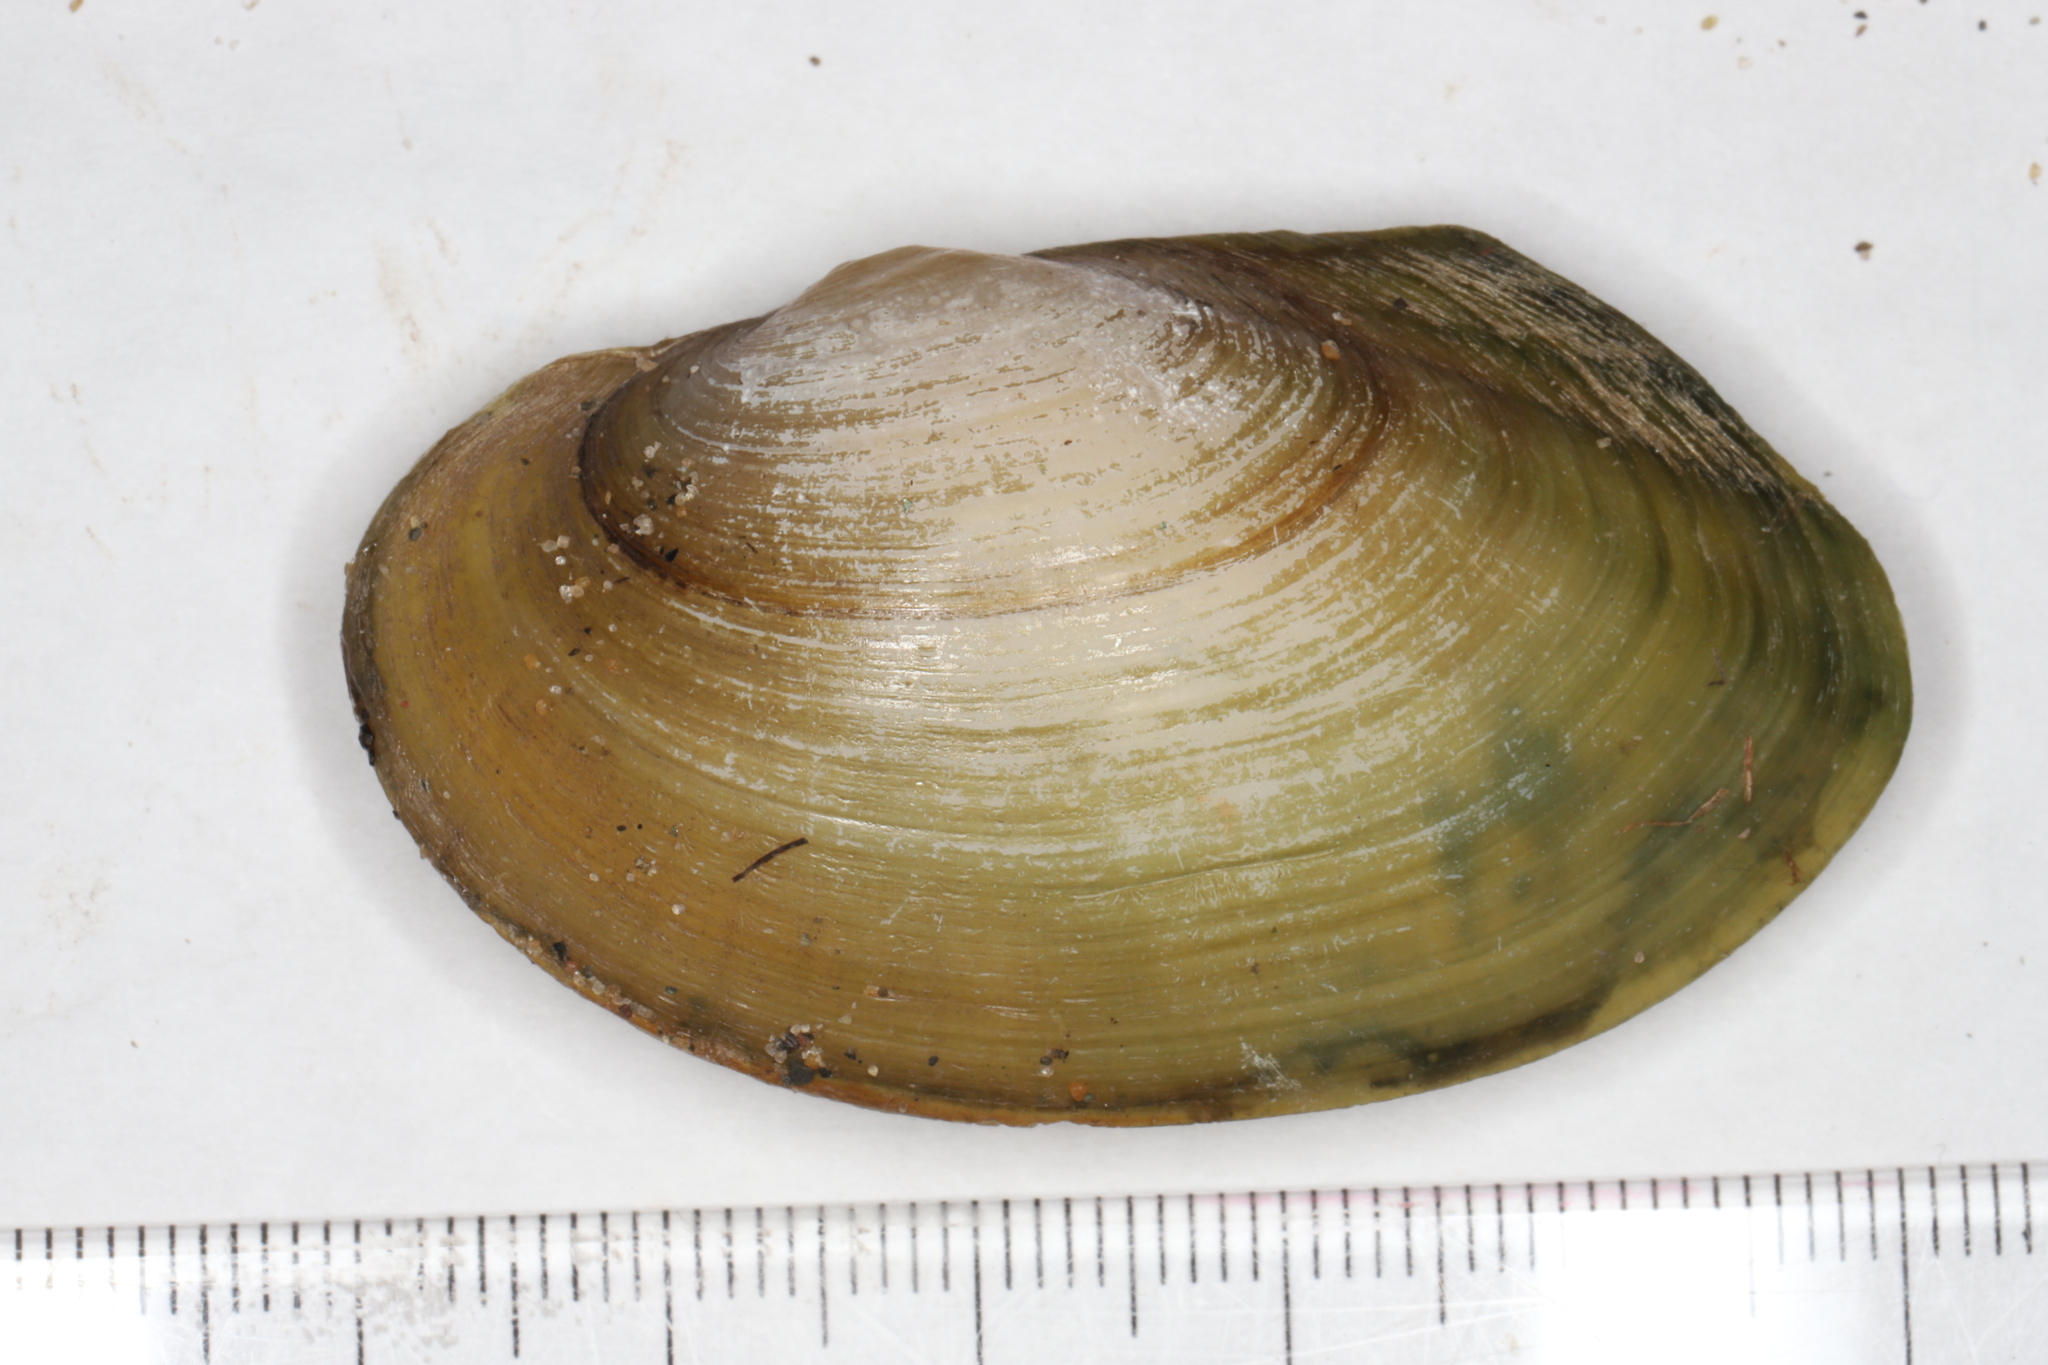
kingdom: Animalia
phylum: Mollusca
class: Bivalvia
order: Unionida
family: Unionidae
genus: Pyganodon
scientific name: Pyganodon grandis
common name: Giant floater
